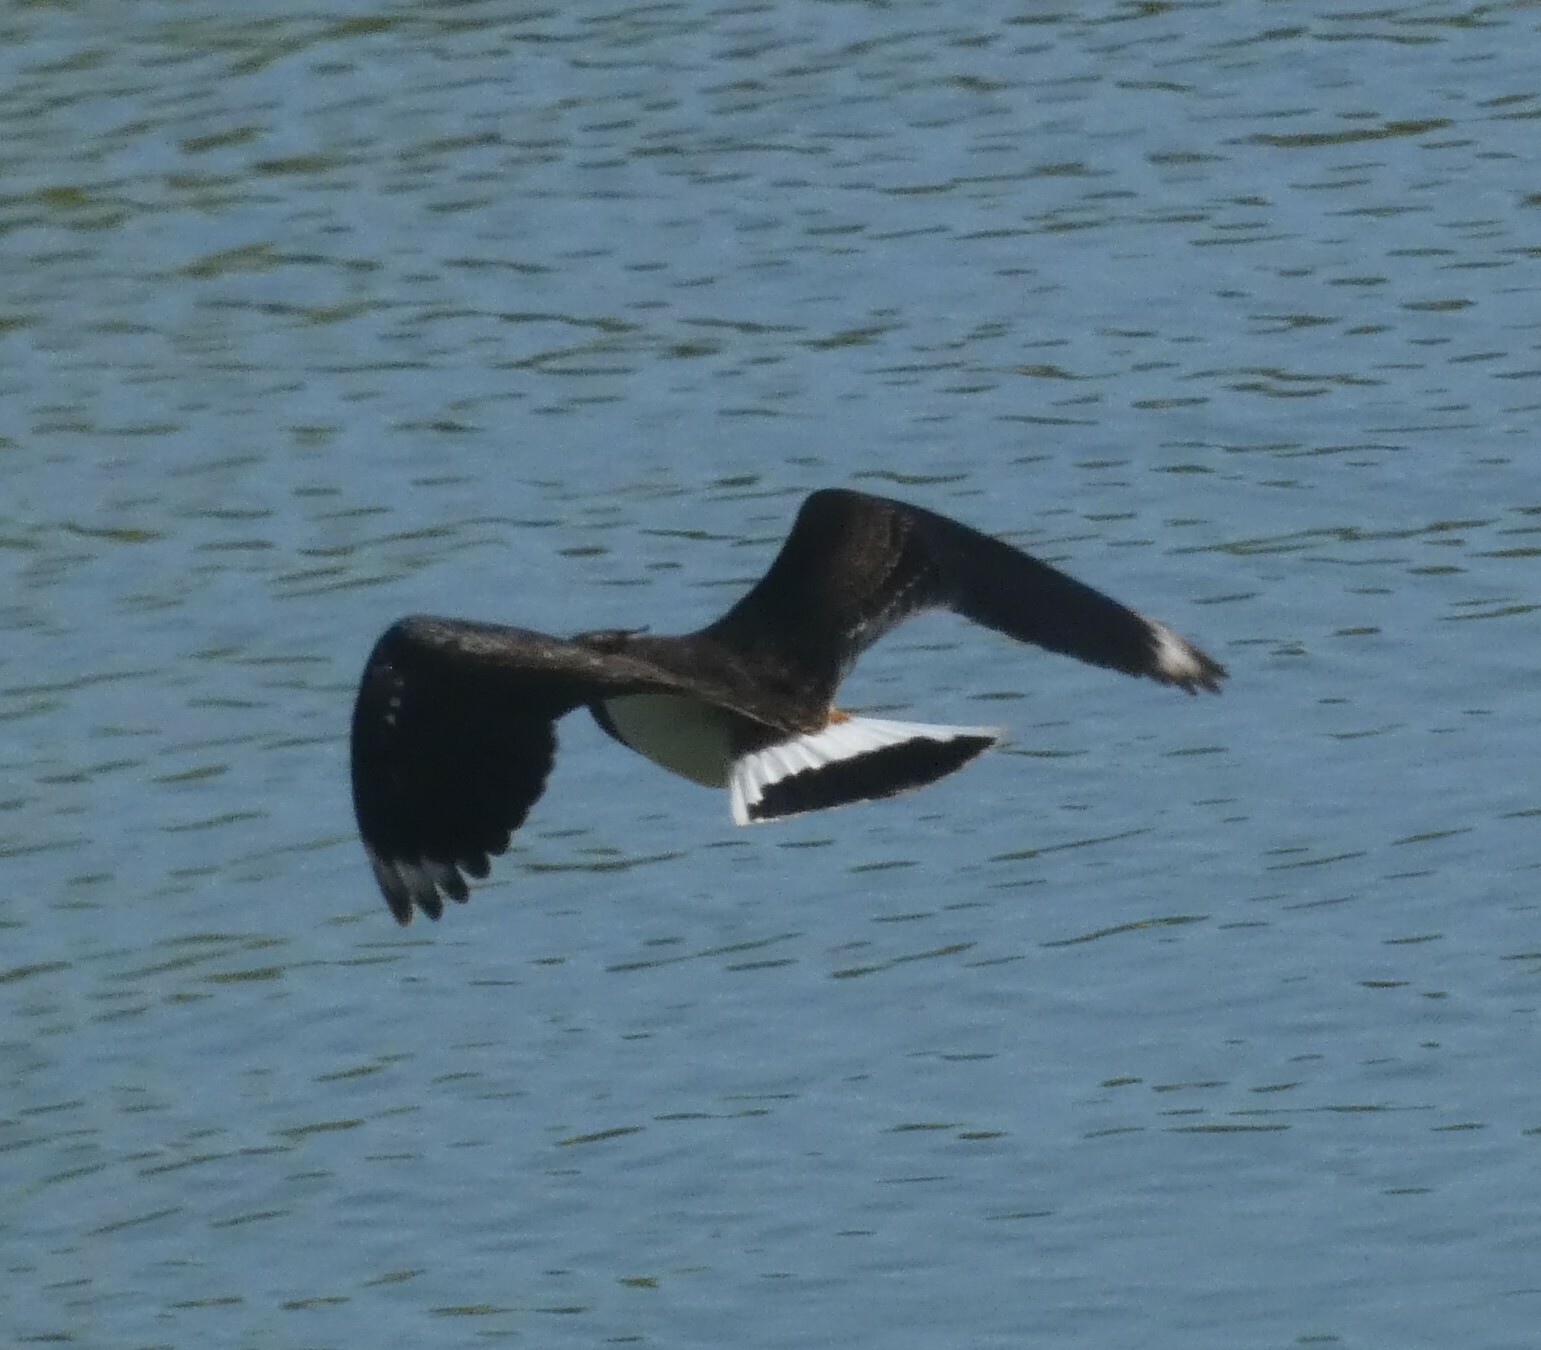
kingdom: Animalia
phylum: Chordata
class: Aves
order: Charadriiformes
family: Charadriidae
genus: Vanellus
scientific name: Vanellus vanellus
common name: Northern lapwing
